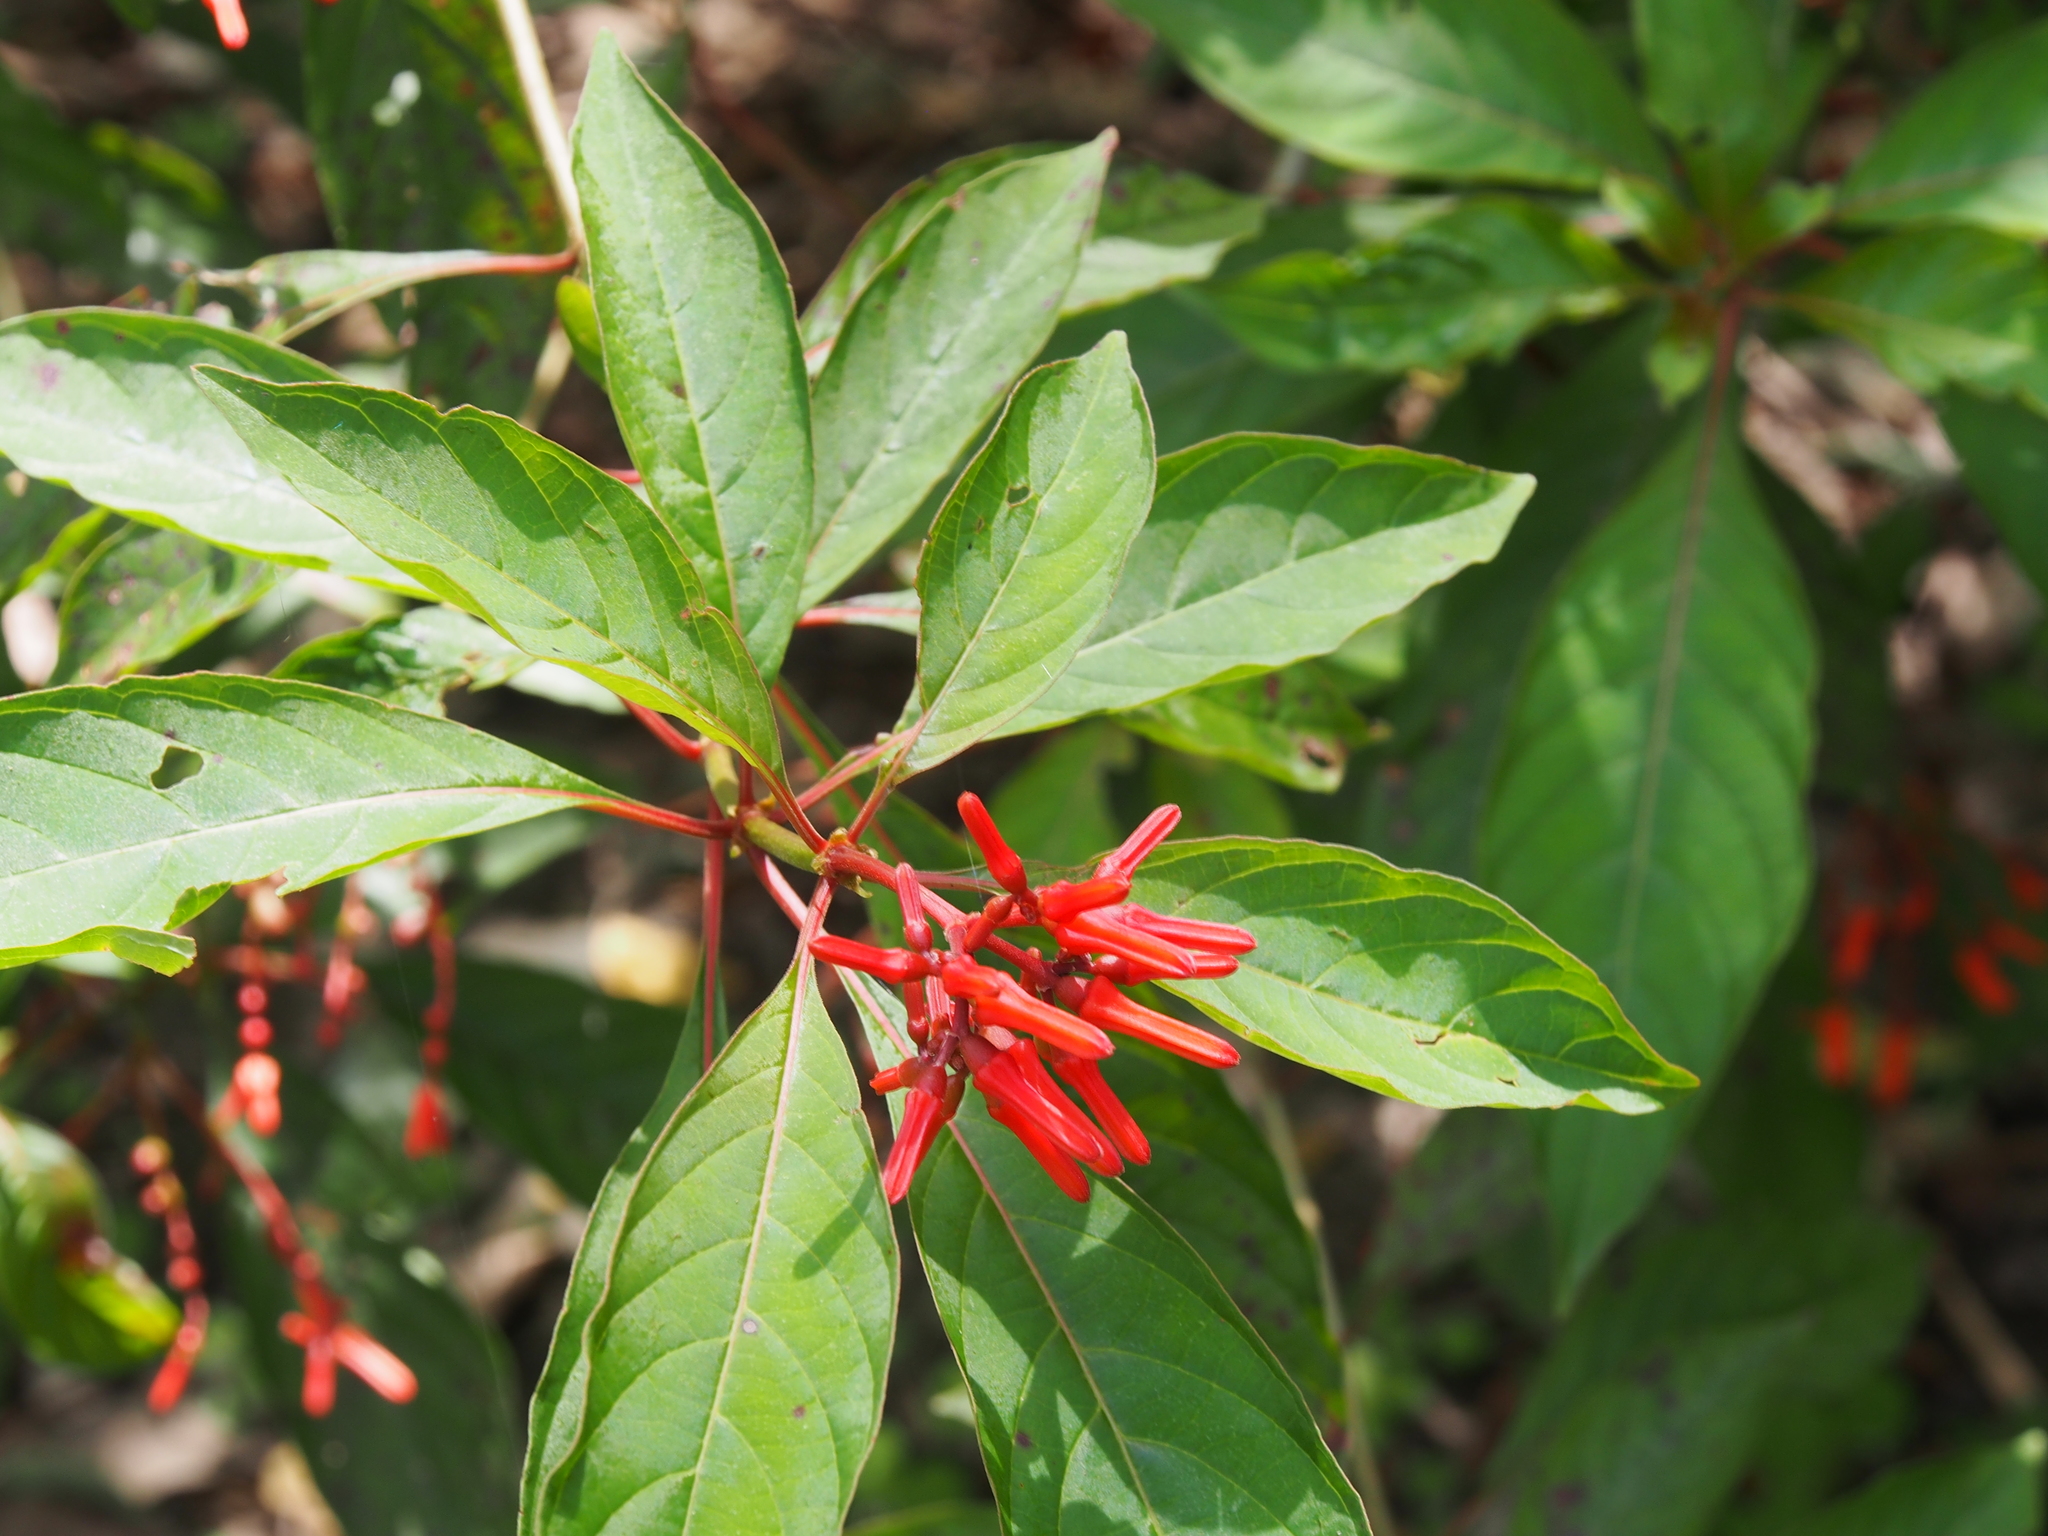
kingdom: Plantae
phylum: Tracheophyta
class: Magnoliopsida
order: Gentianales
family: Rubiaceae
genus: Hamelia
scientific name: Hamelia patens
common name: Redhead
